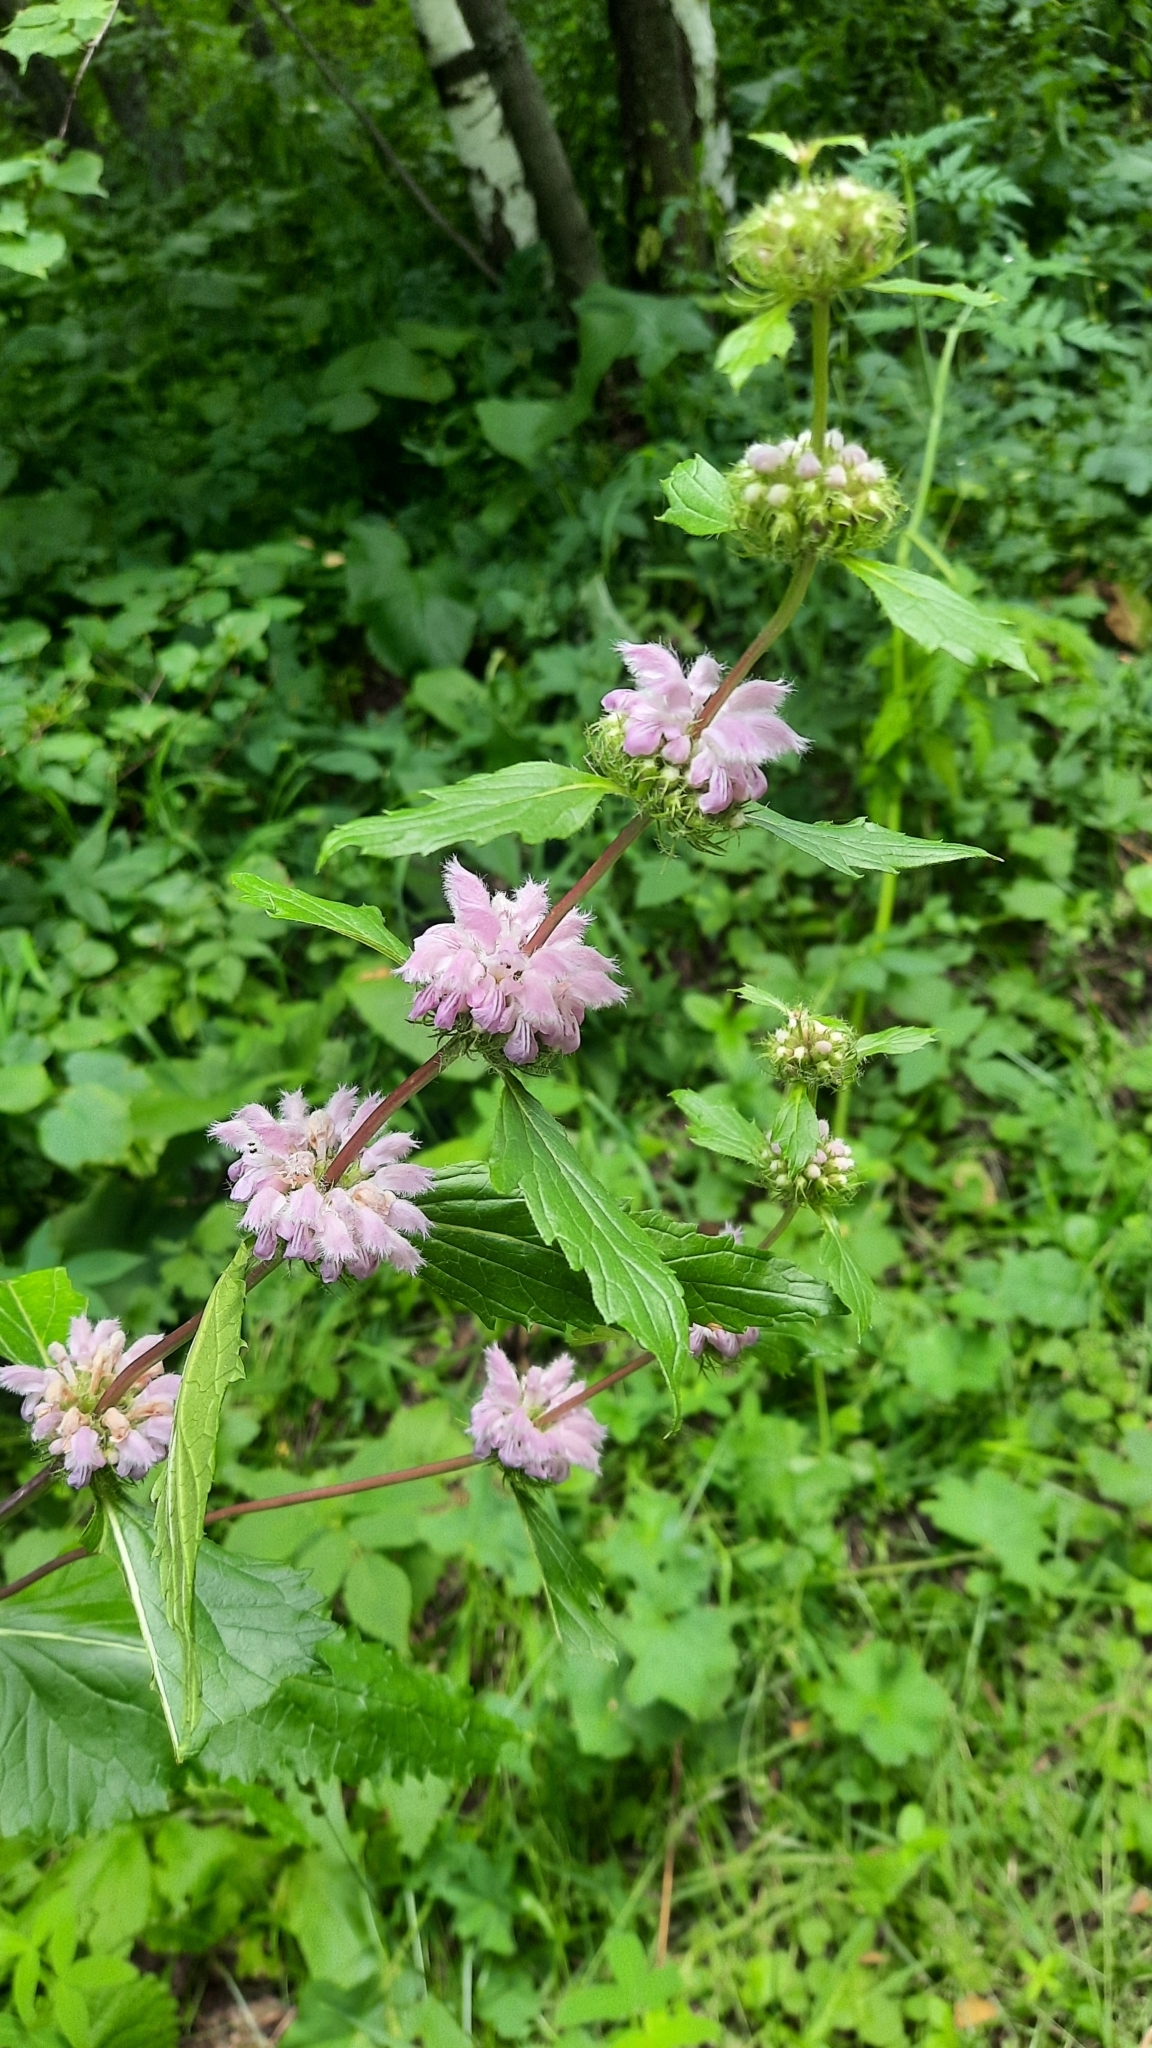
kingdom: Plantae
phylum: Tracheophyta
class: Magnoliopsida
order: Lamiales
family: Lamiaceae
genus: Phlomoides
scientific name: Phlomoides tuberosa
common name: Tuberous jerusalem sage
